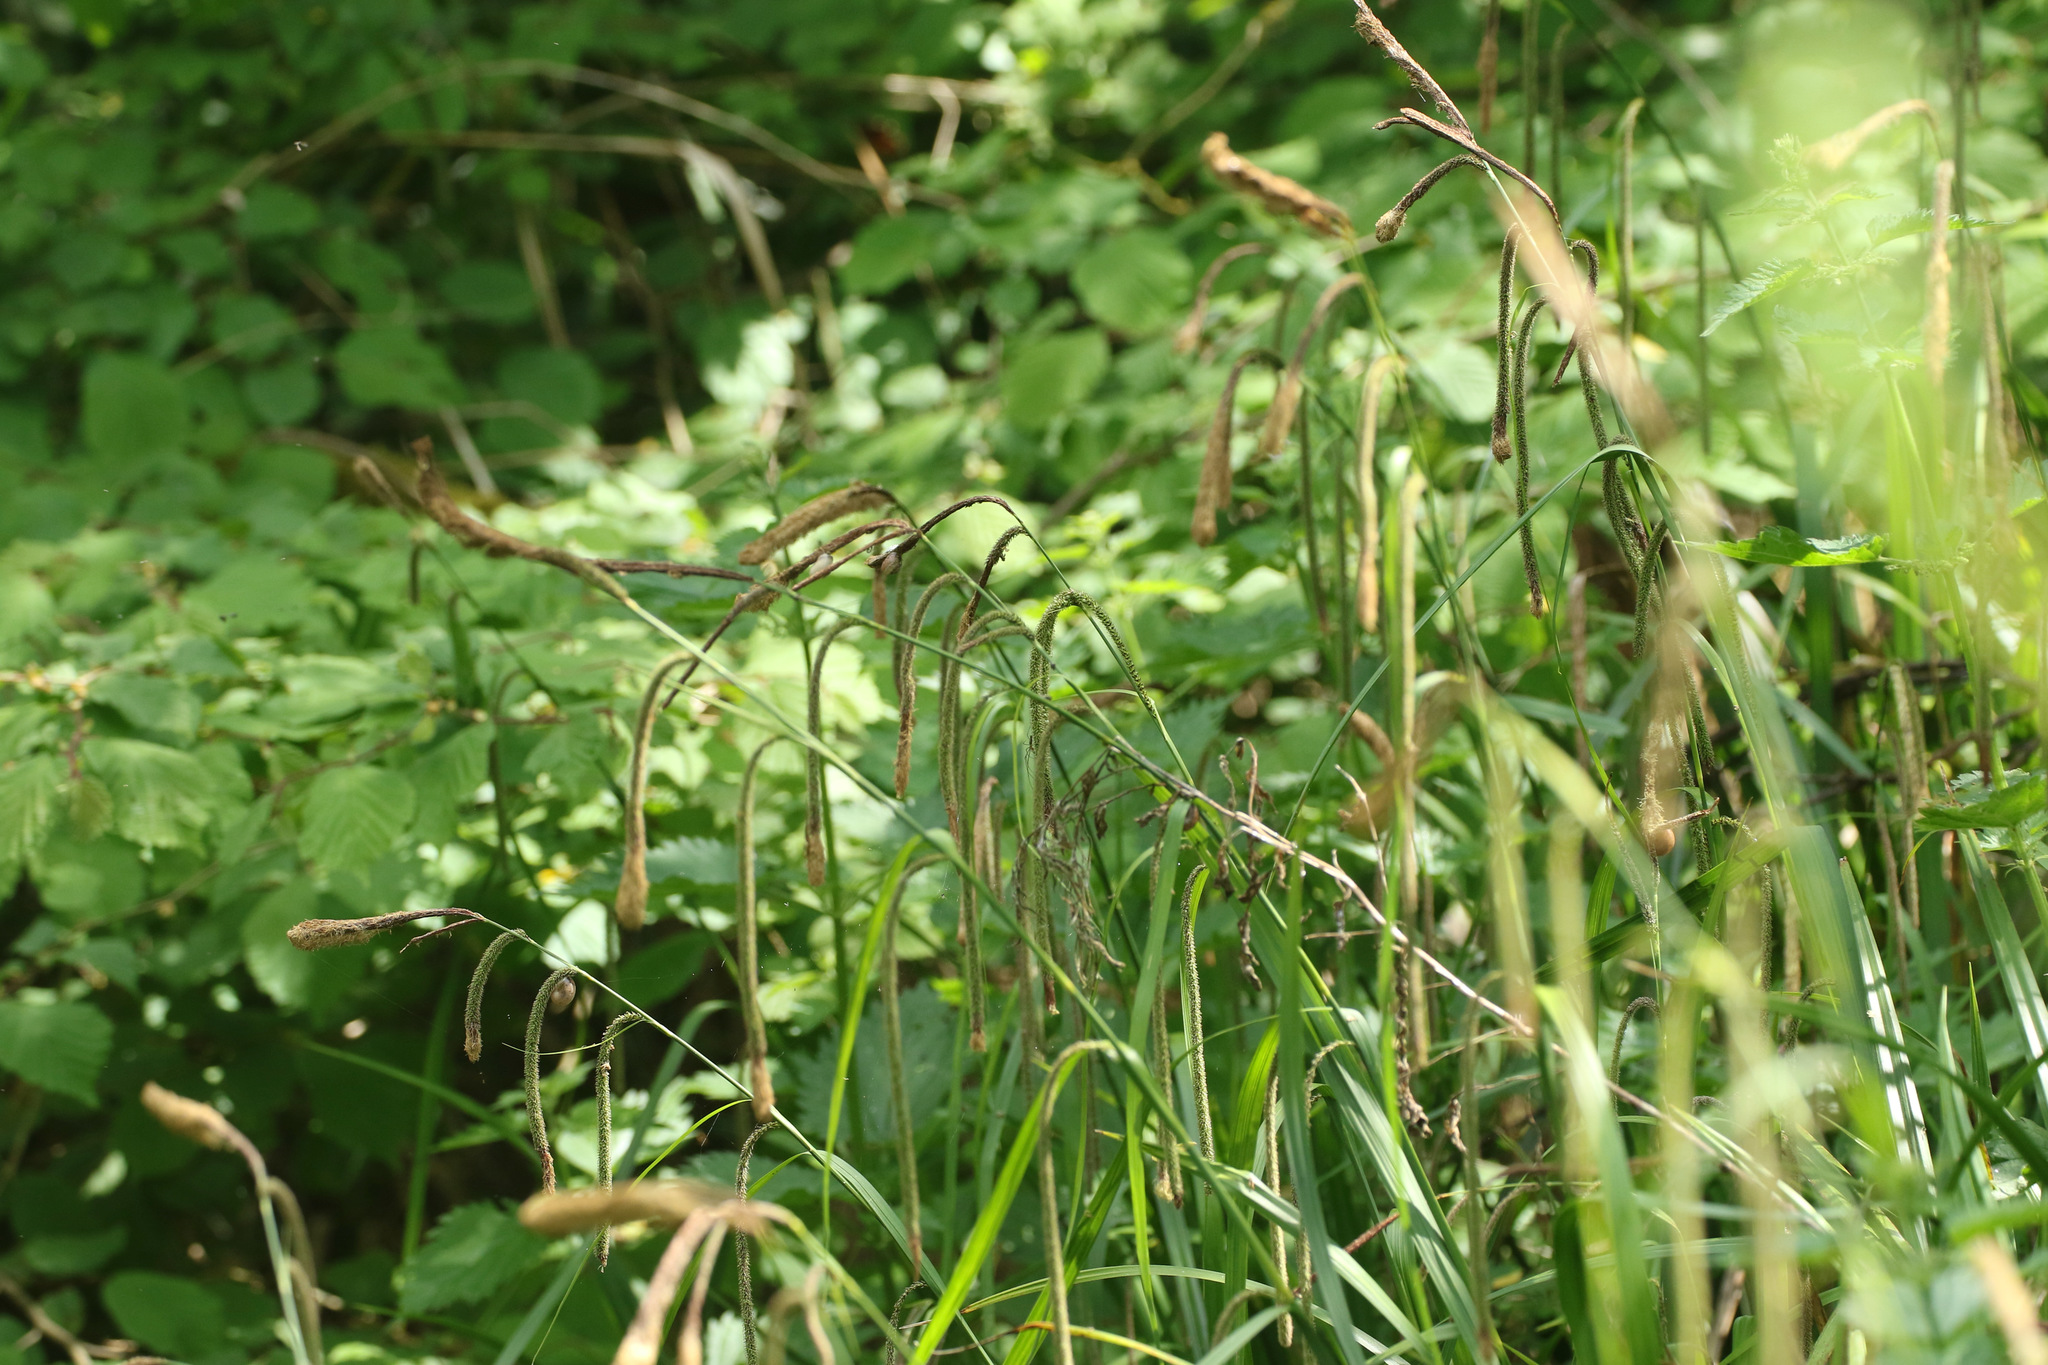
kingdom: Plantae
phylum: Tracheophyta
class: Liliopsida
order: Poales
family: Cyperaceae
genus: Carex
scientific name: Carex pendula
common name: Pendulous sedge
